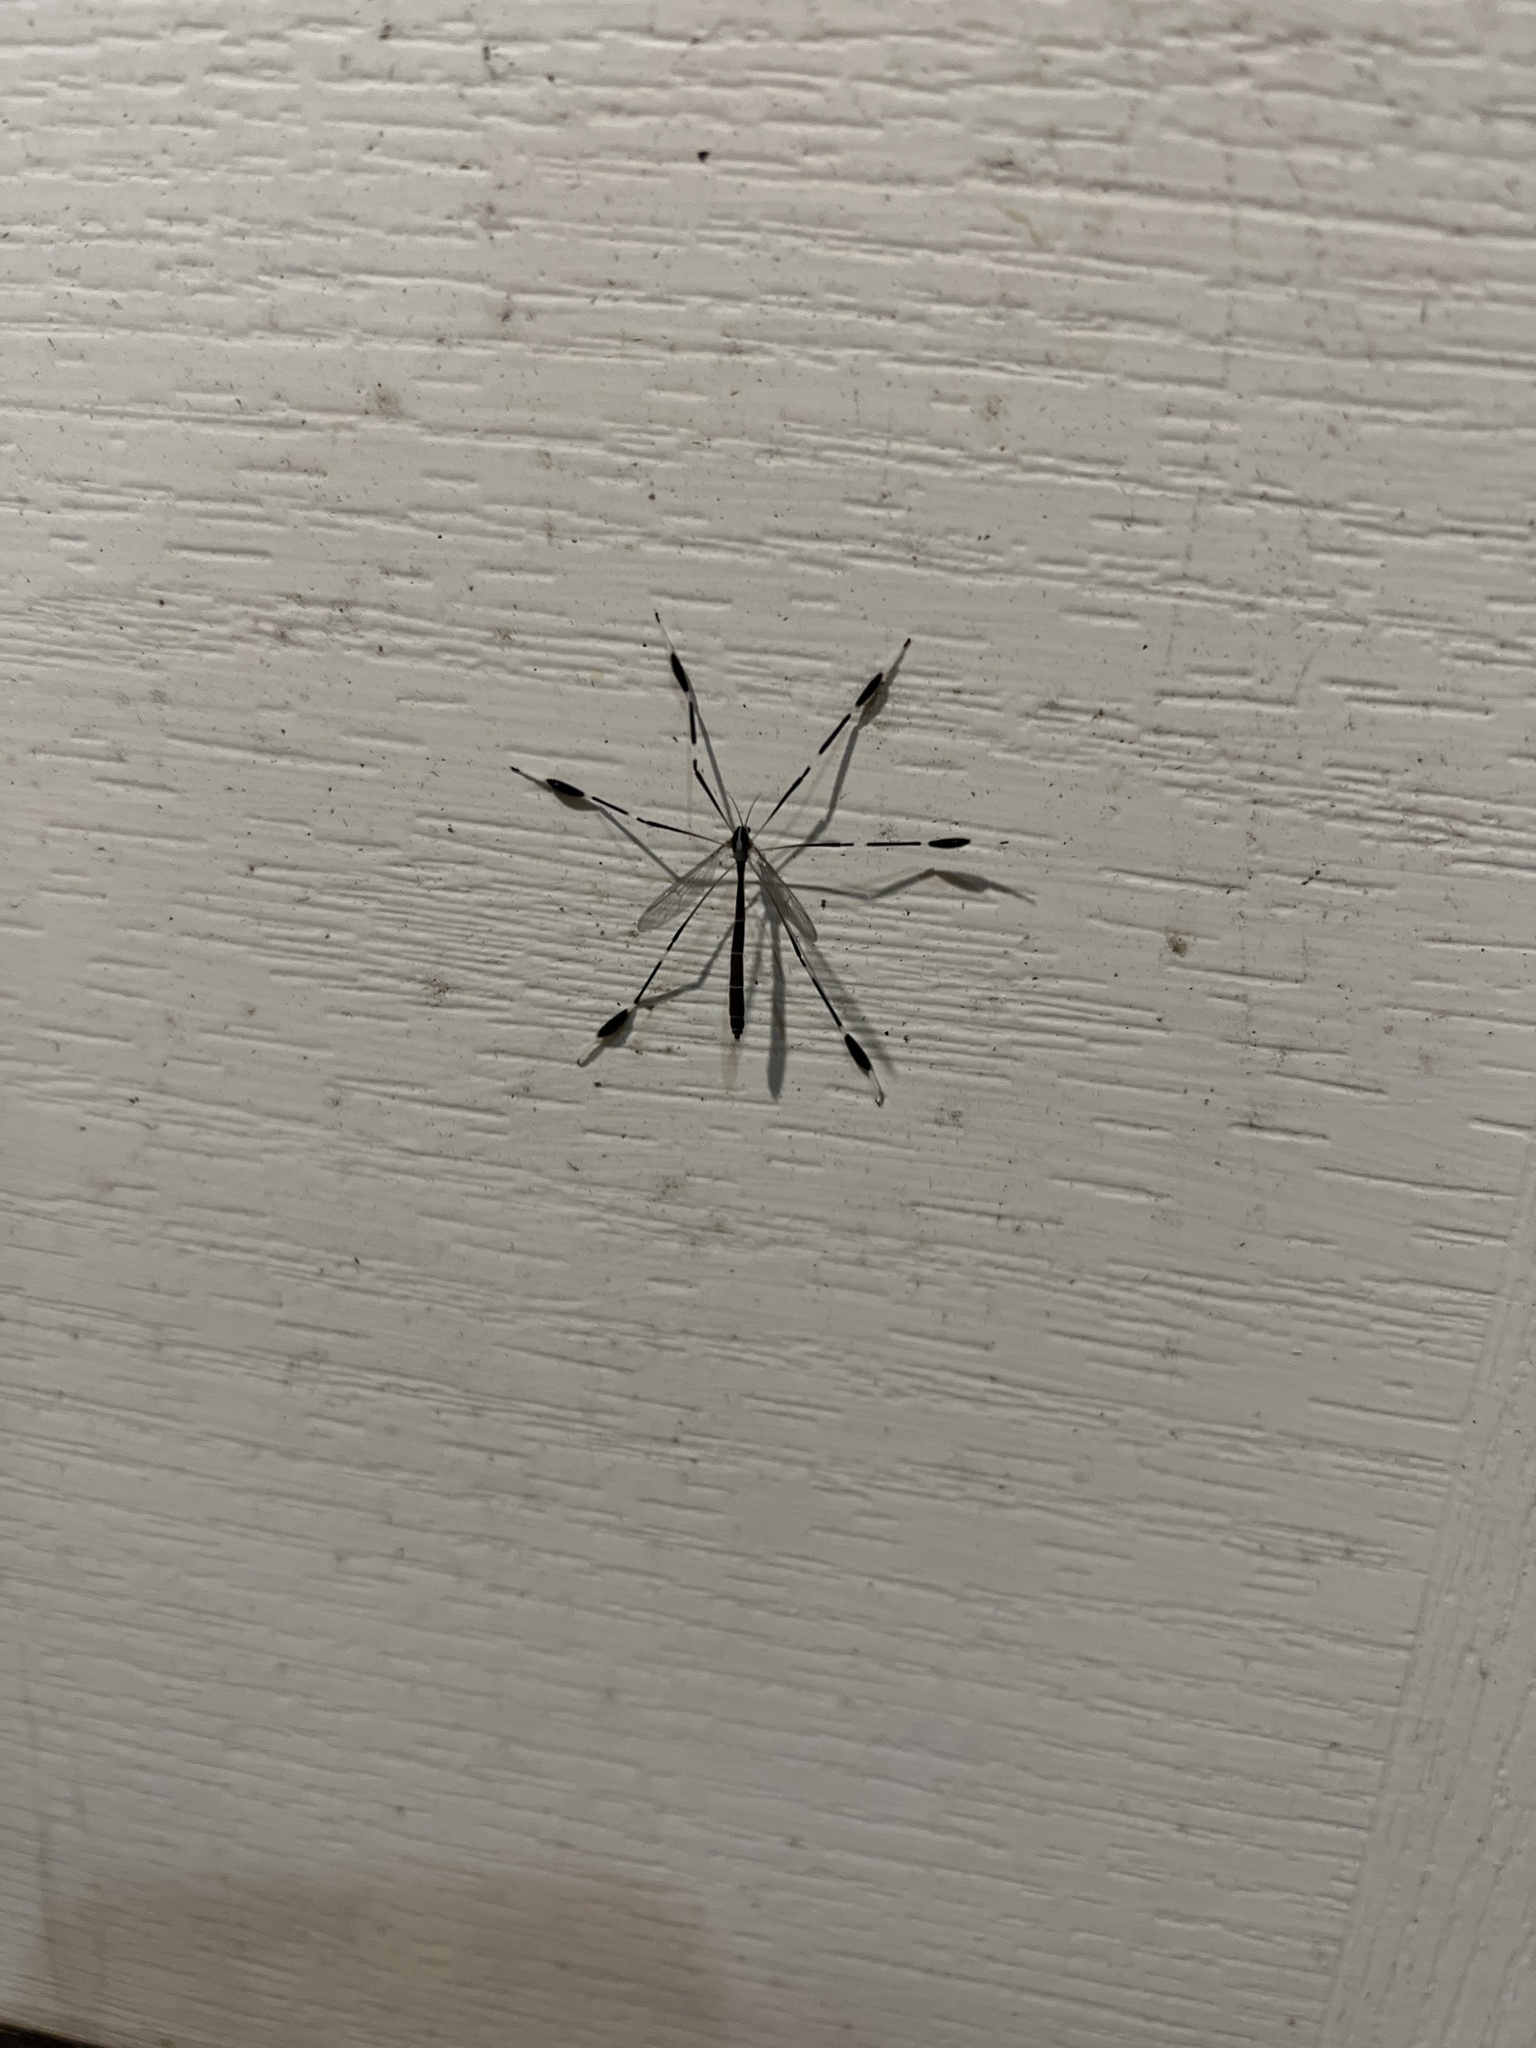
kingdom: Animalia
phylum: Arthropoda
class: Insecta
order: Diptera
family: Ptychopteridae
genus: Bittacomorpha
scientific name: Bittacomorpha clavipes
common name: Eastern phantom crane fly
